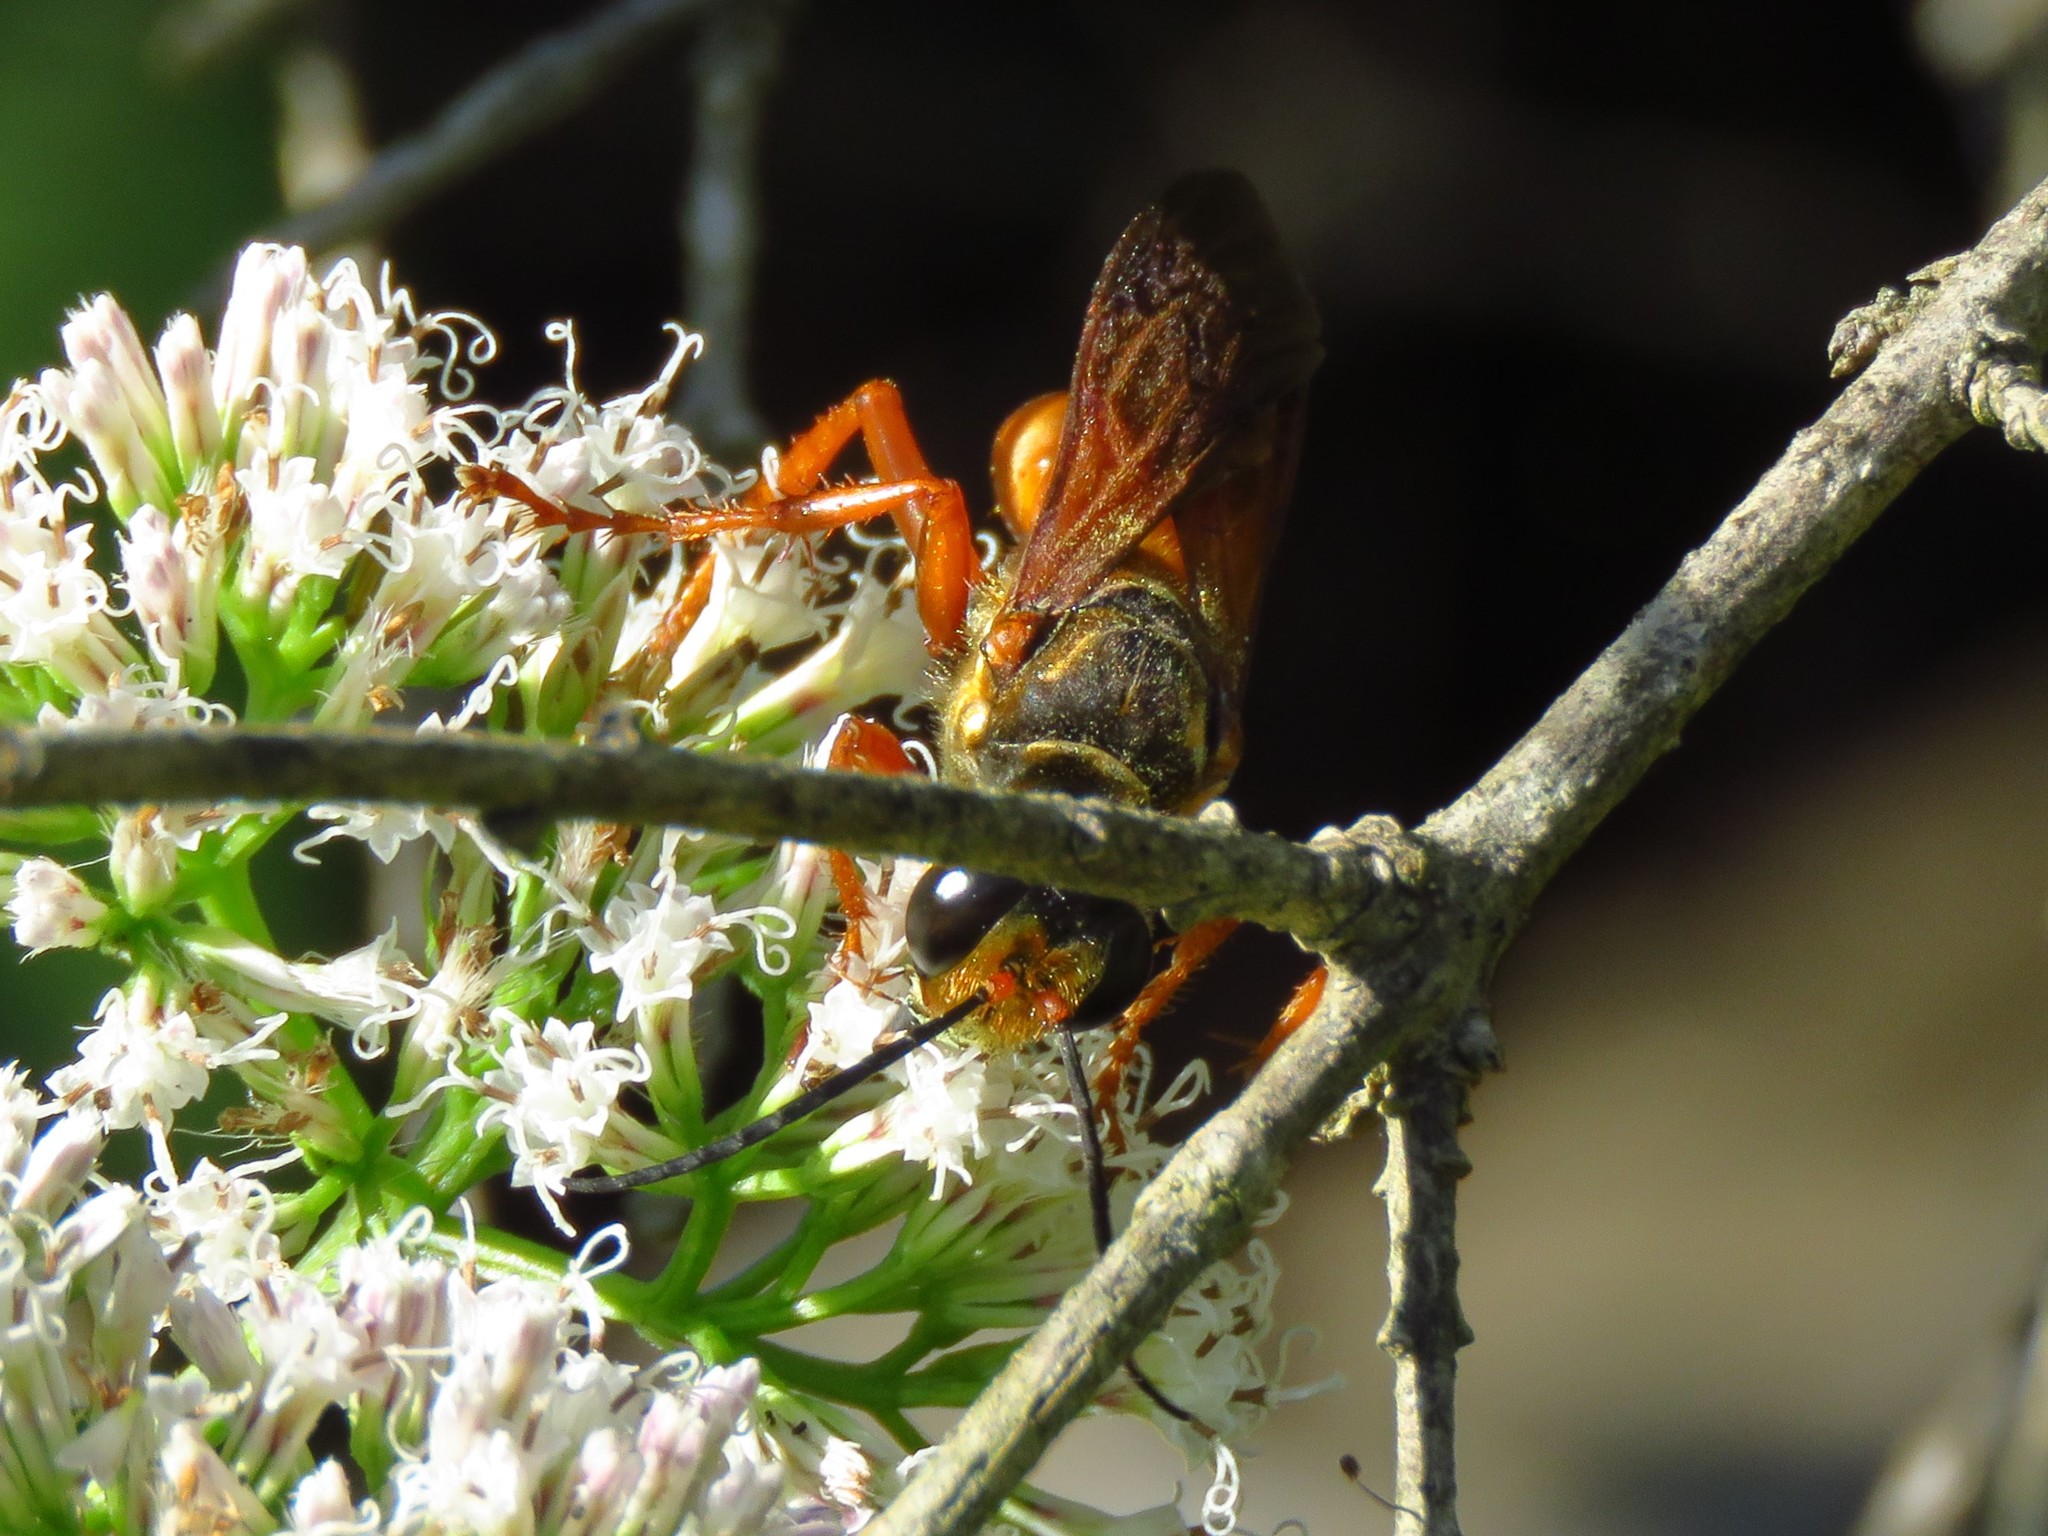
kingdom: Animalia
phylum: Arthropoda
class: Insecta
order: Hymenoptera
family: Sphecidae
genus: Sphex
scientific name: Sphex ichneumoneus
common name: Great golden digger wasp
